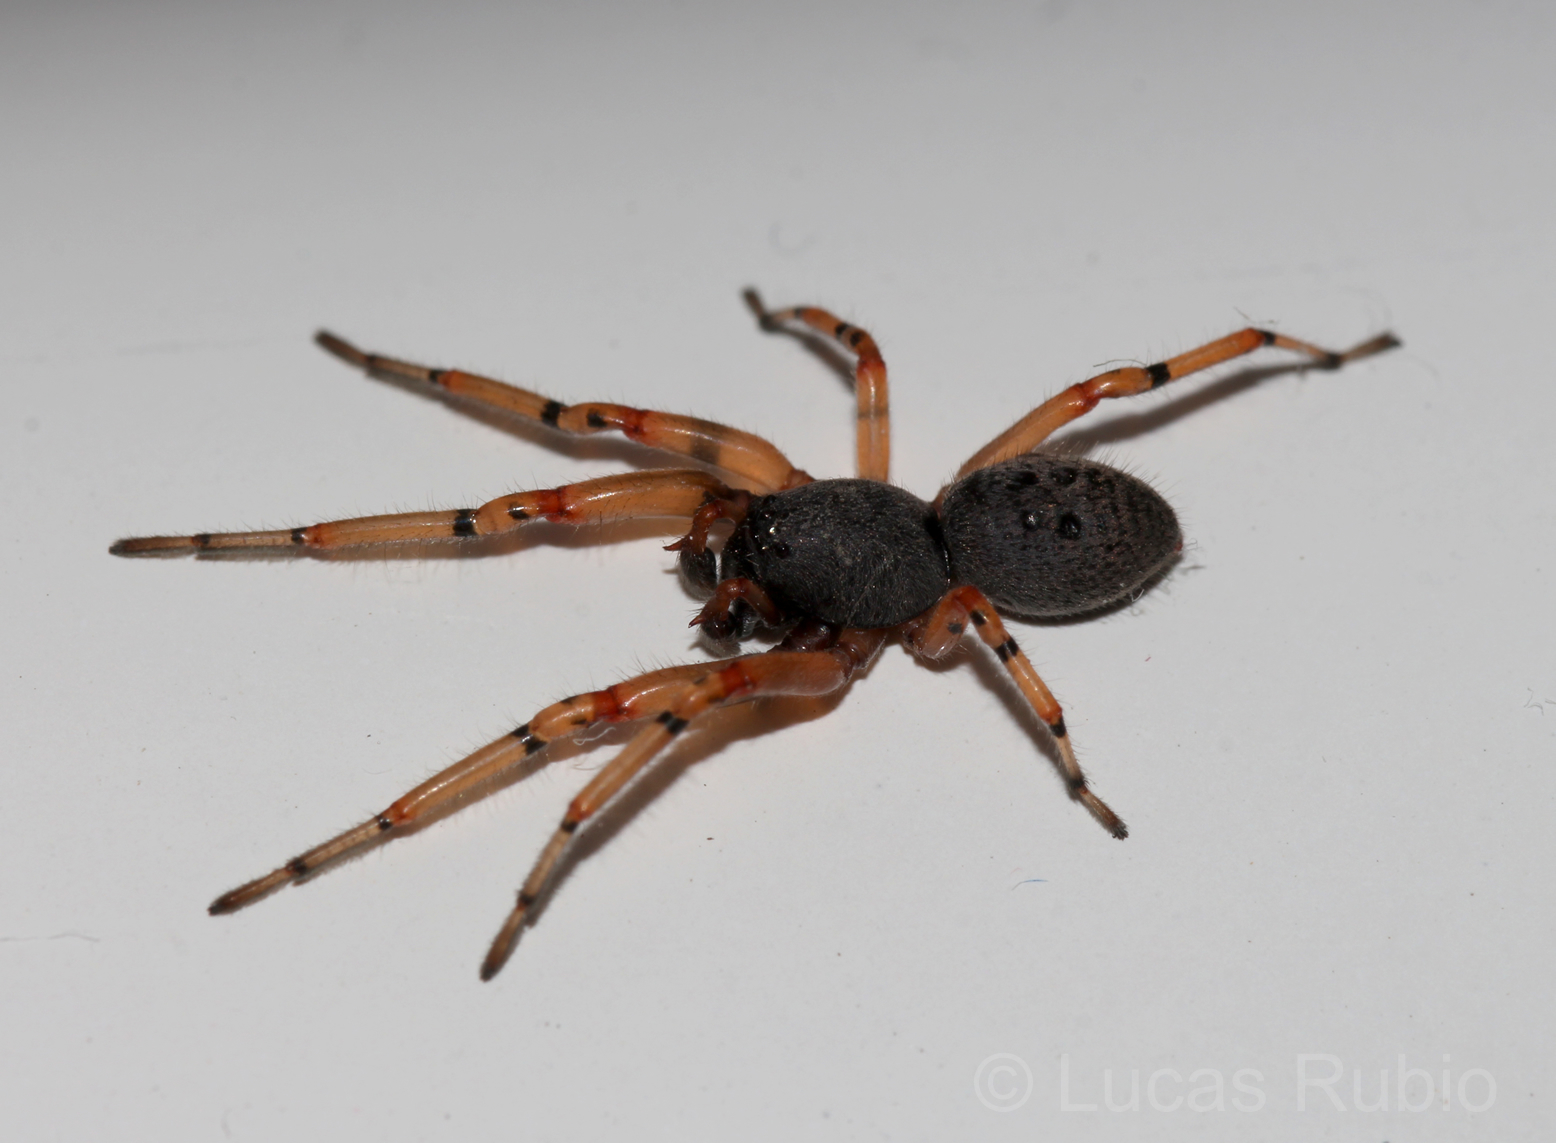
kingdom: Animalia
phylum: Arthropoda
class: Arachnida
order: Araneae
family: Trachelidae
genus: Trachelopachys
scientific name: Trachelopachys
